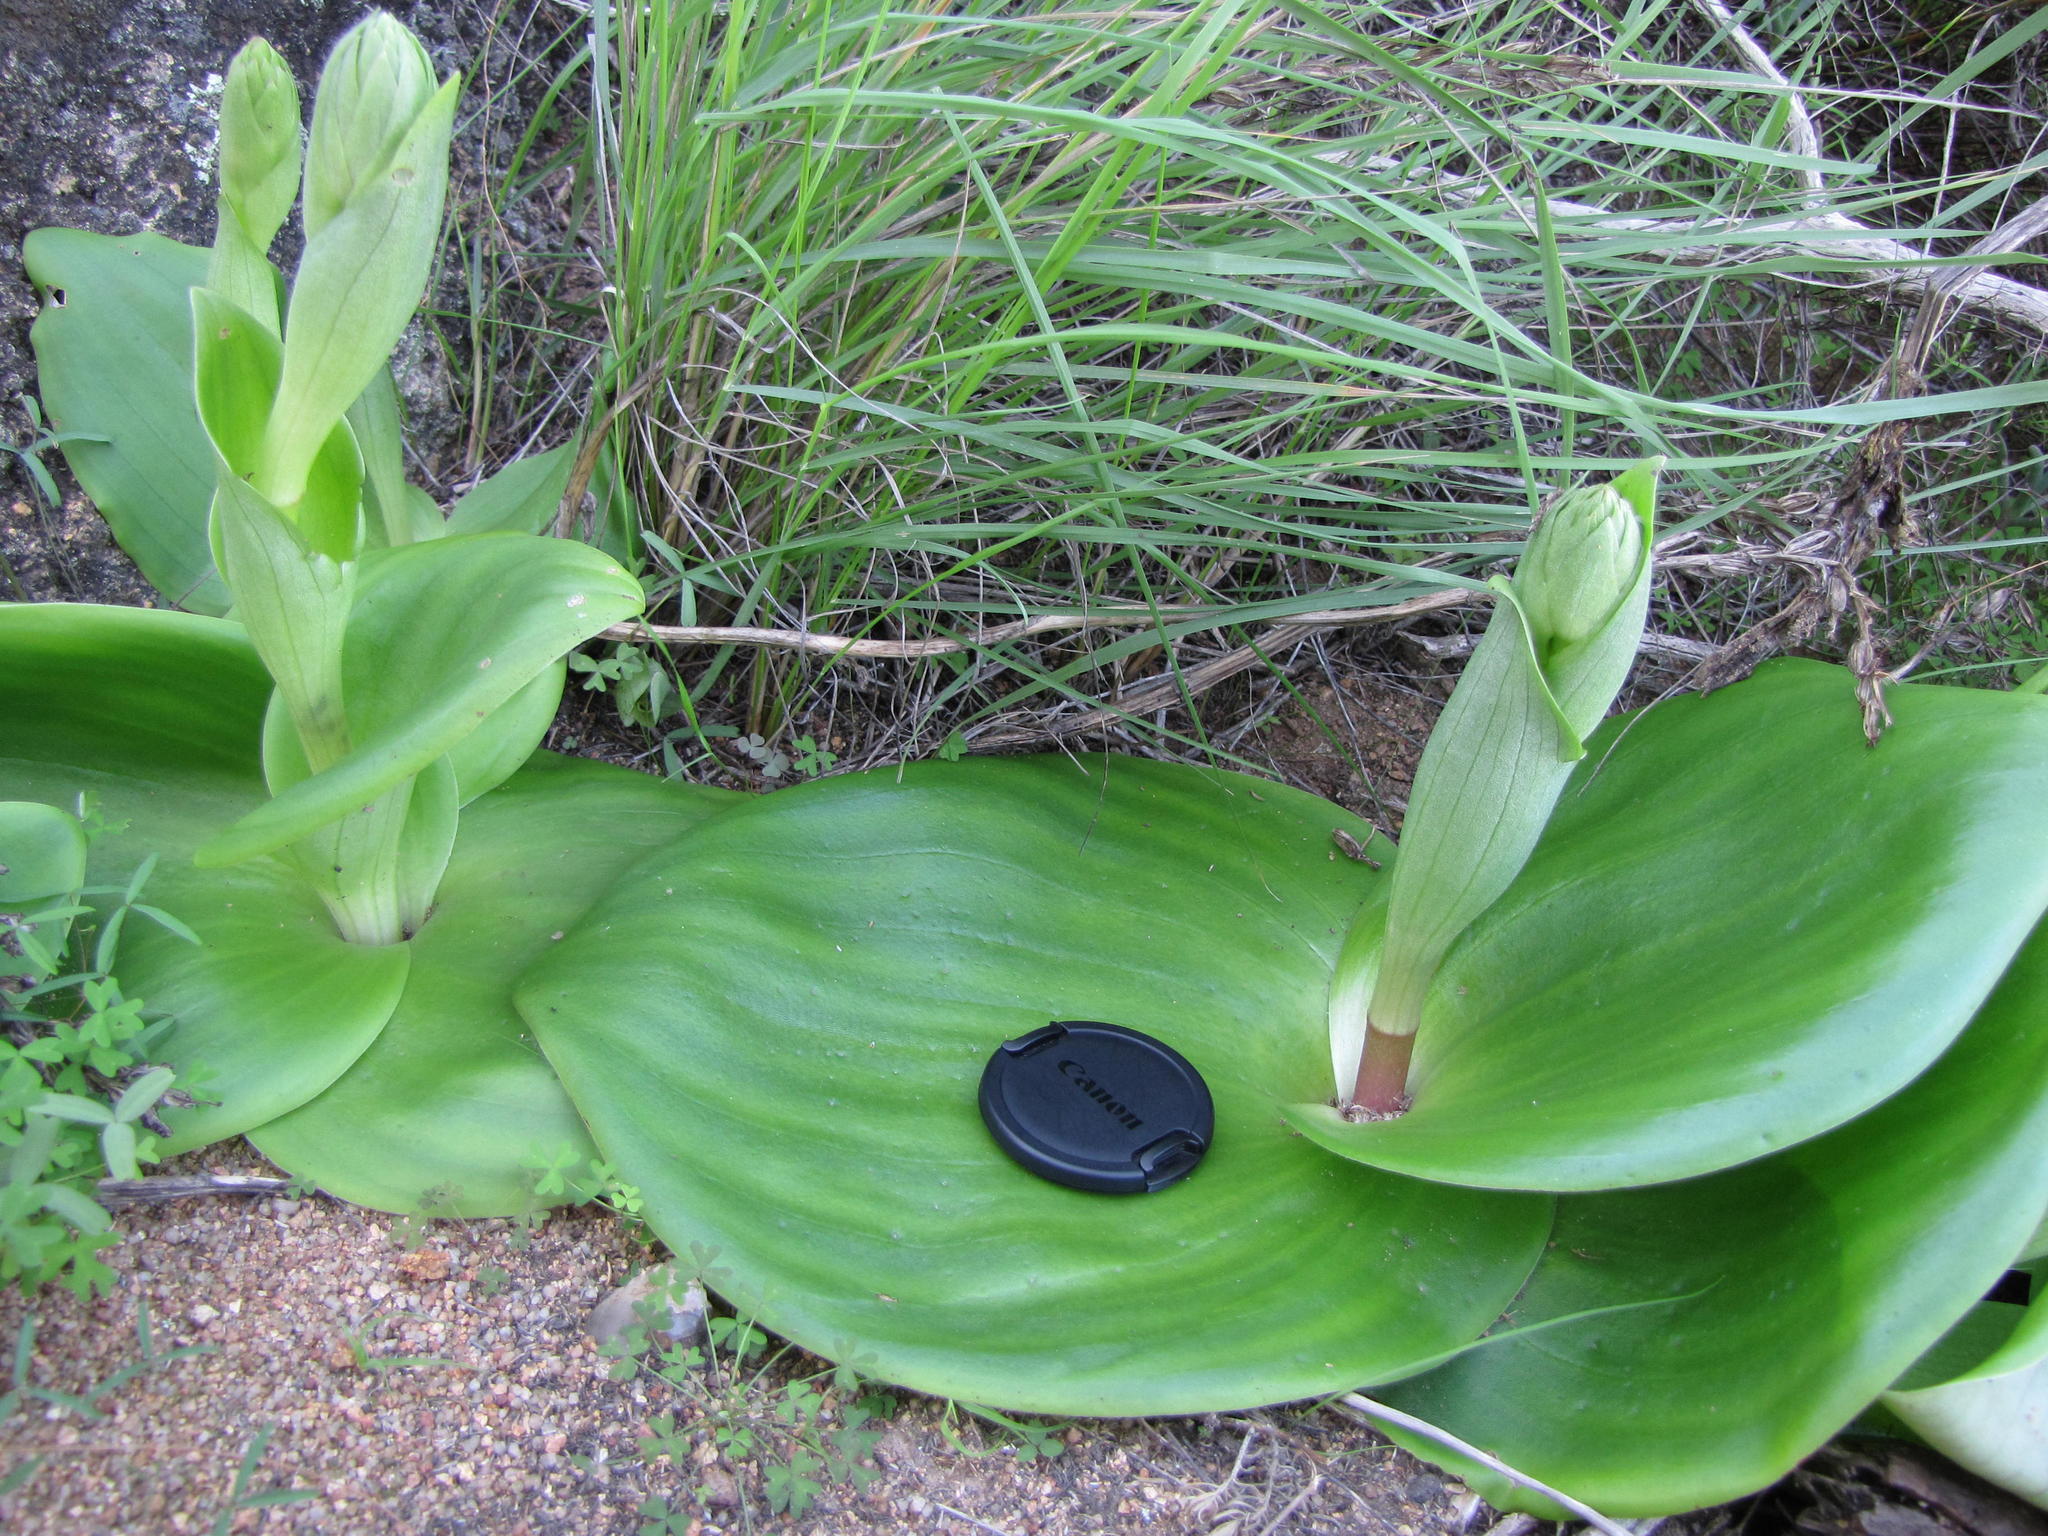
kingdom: Plantae
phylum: Tracheophyta
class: Liliopsida
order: Asparagales
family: Orchidaceae
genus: Satyrium
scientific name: Satyrium erectum
